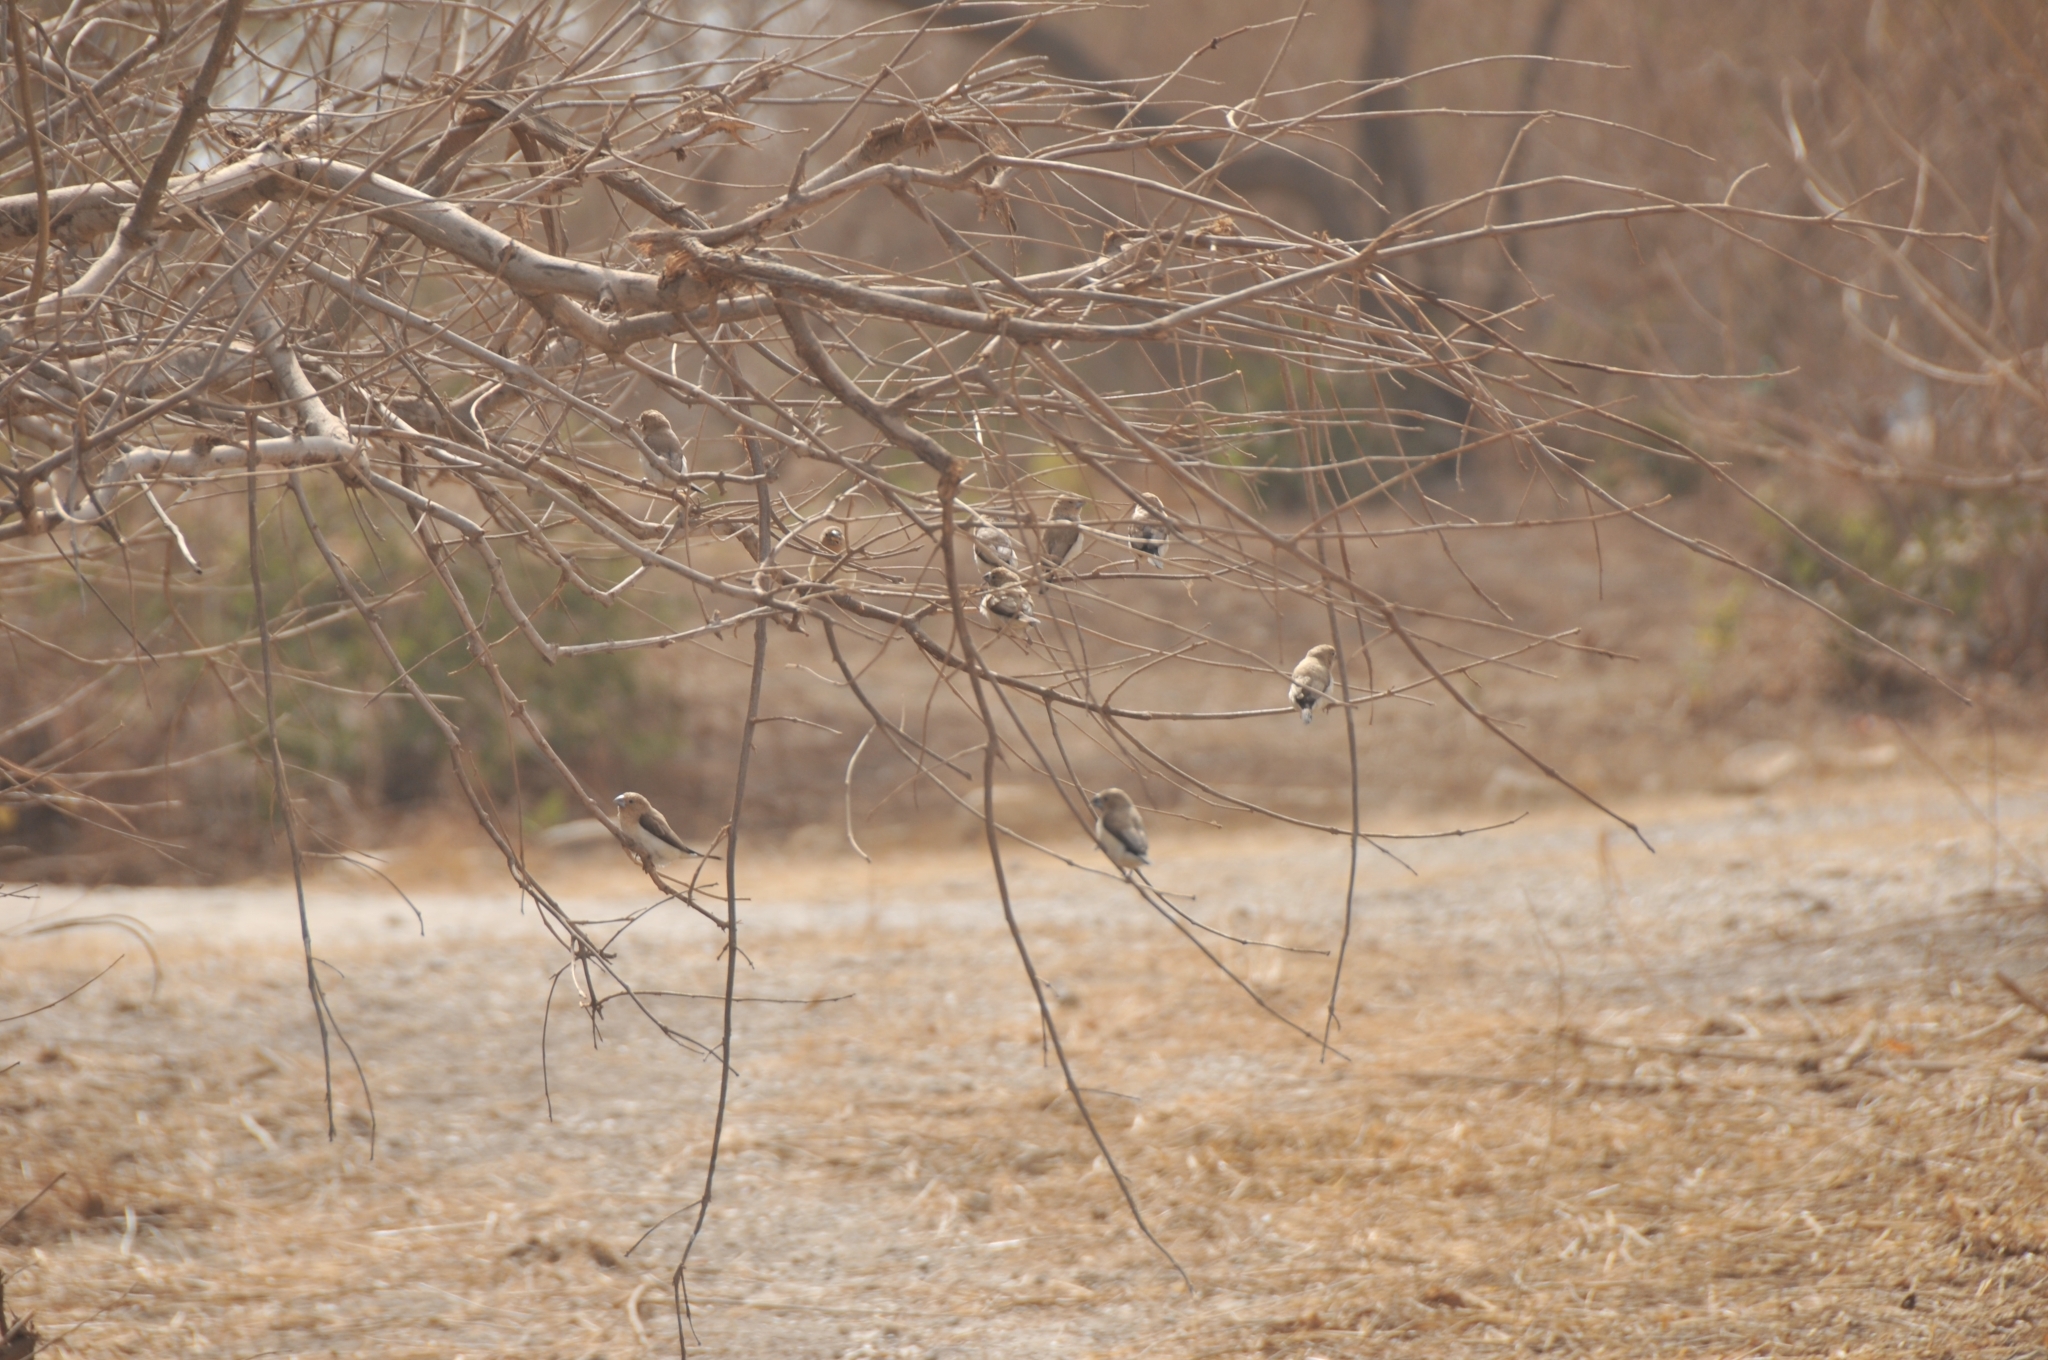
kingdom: Animalia
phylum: Chordata
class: Aves
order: Passeriformes
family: Estrildidae
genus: Euodice
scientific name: Euodice cantans
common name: African silverbill
